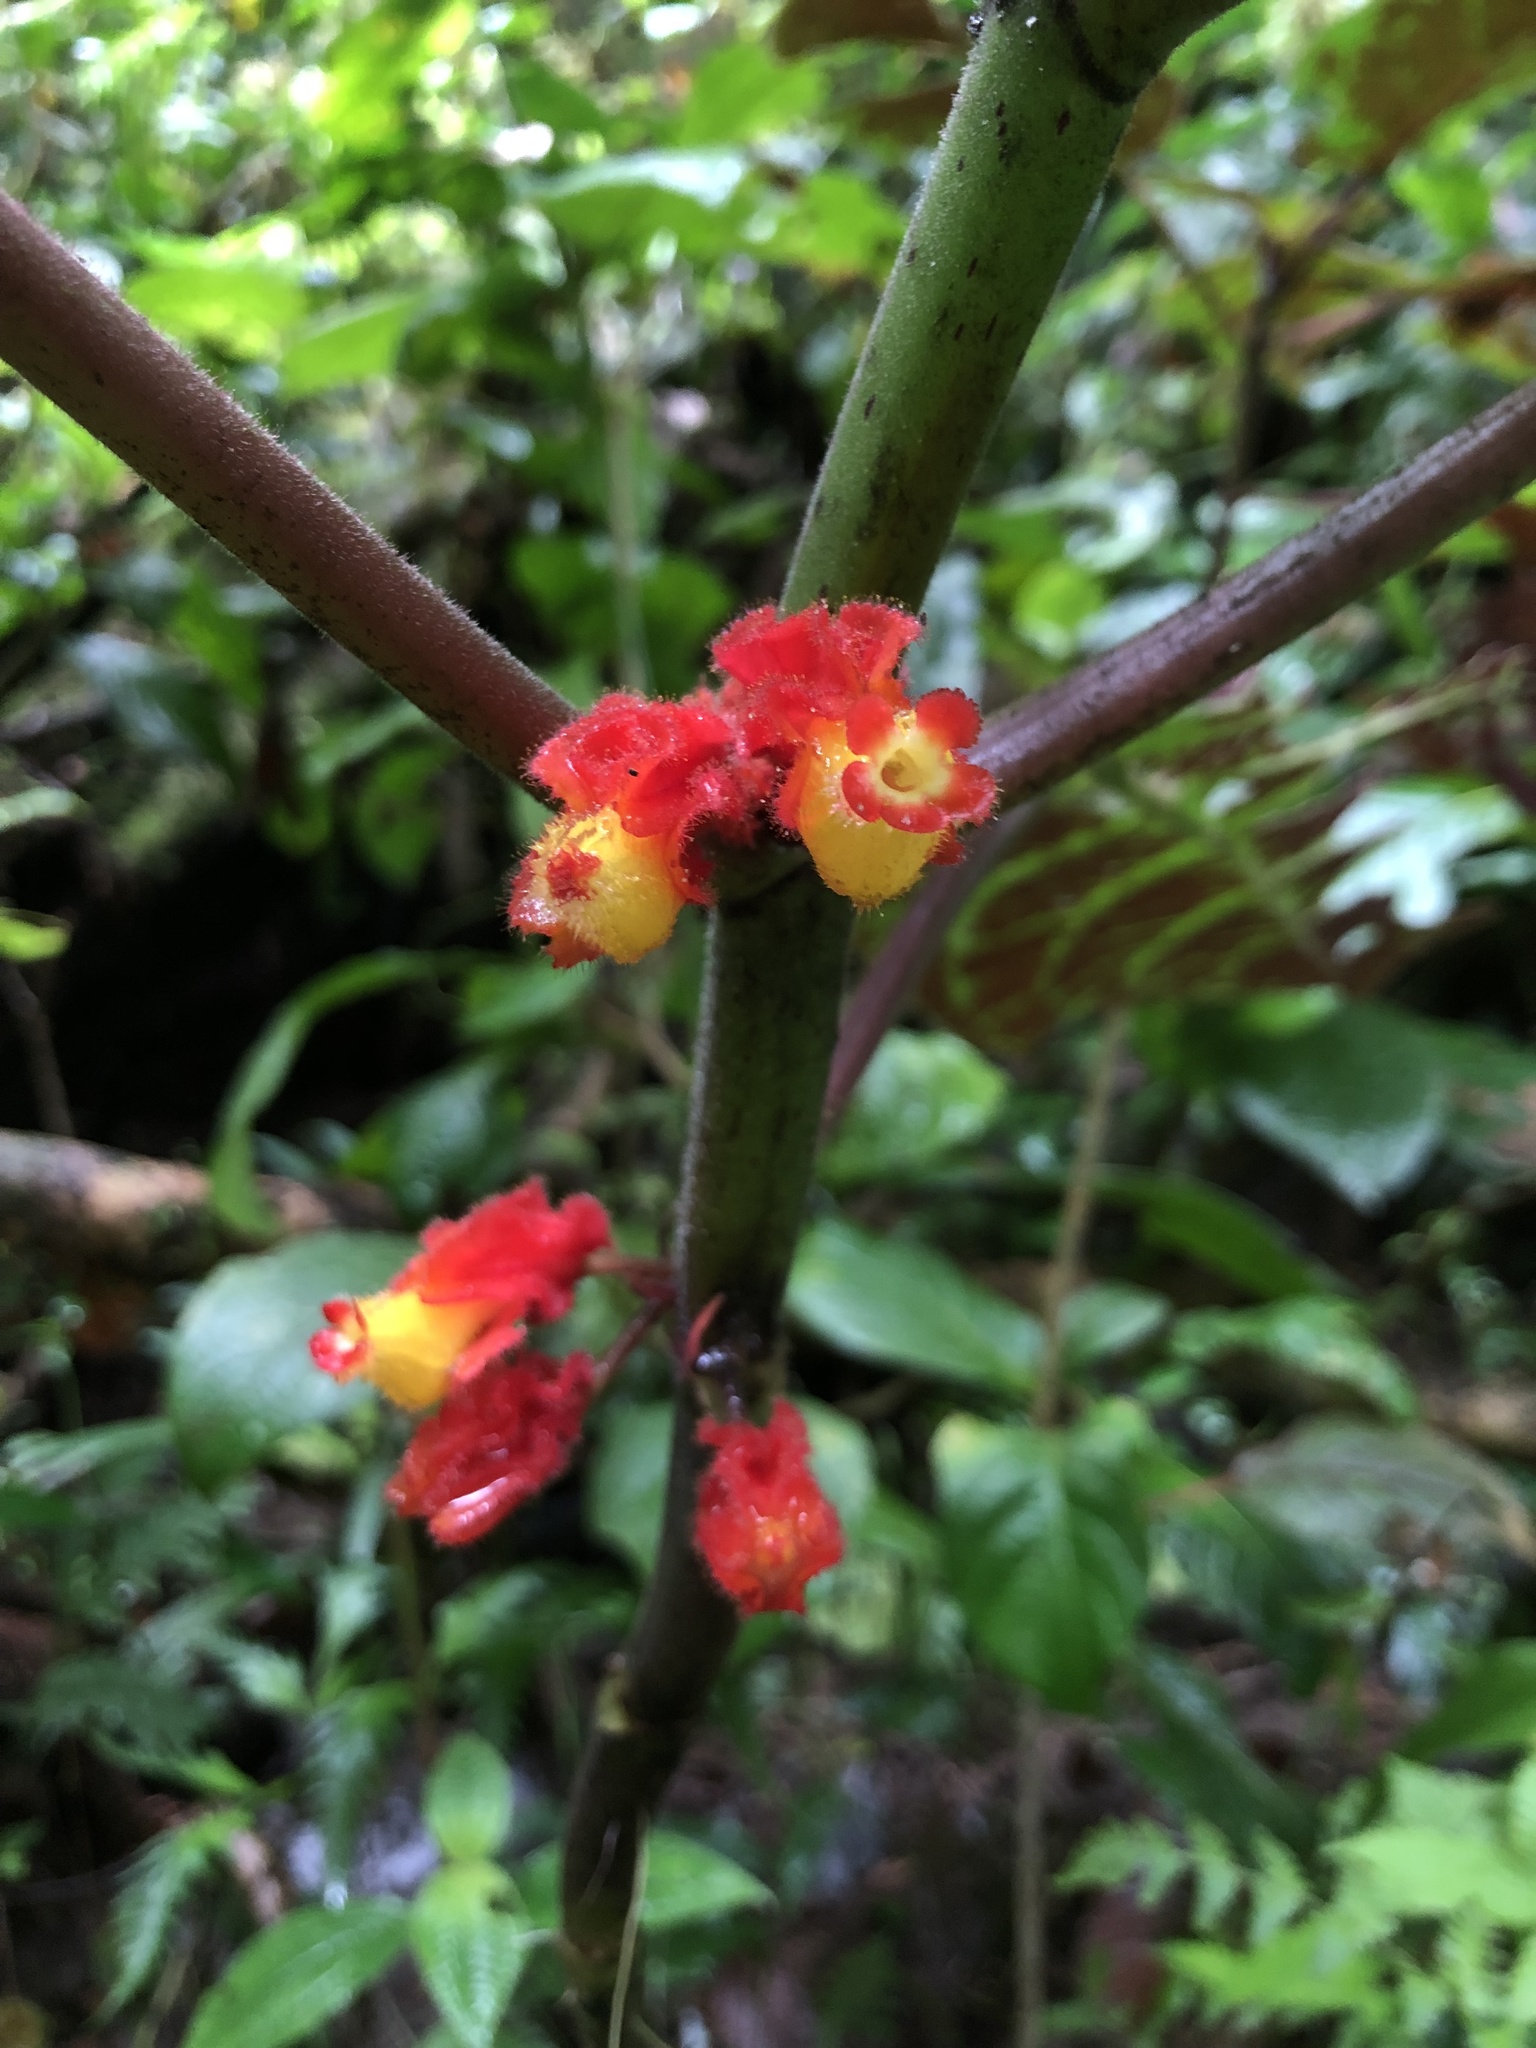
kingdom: Plantae
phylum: Tracheophyta
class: Magnoliopsida
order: Lamiales
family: Gesneriaceae
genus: Drymonia
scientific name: Drymonia teuscheri
